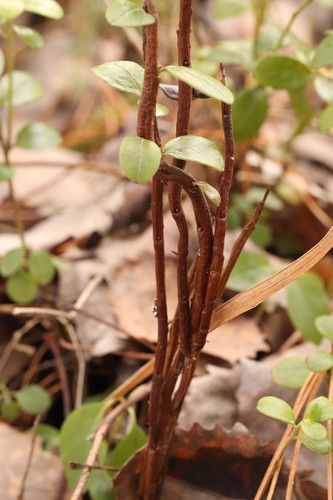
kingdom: Fungi
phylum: Basidiomycota
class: Pucciniomycetes
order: Pucciniales
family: Pucciniastraceae
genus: Calyptospora
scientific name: Calyptospora columnaris
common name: Huckleberry broom rust fungus
